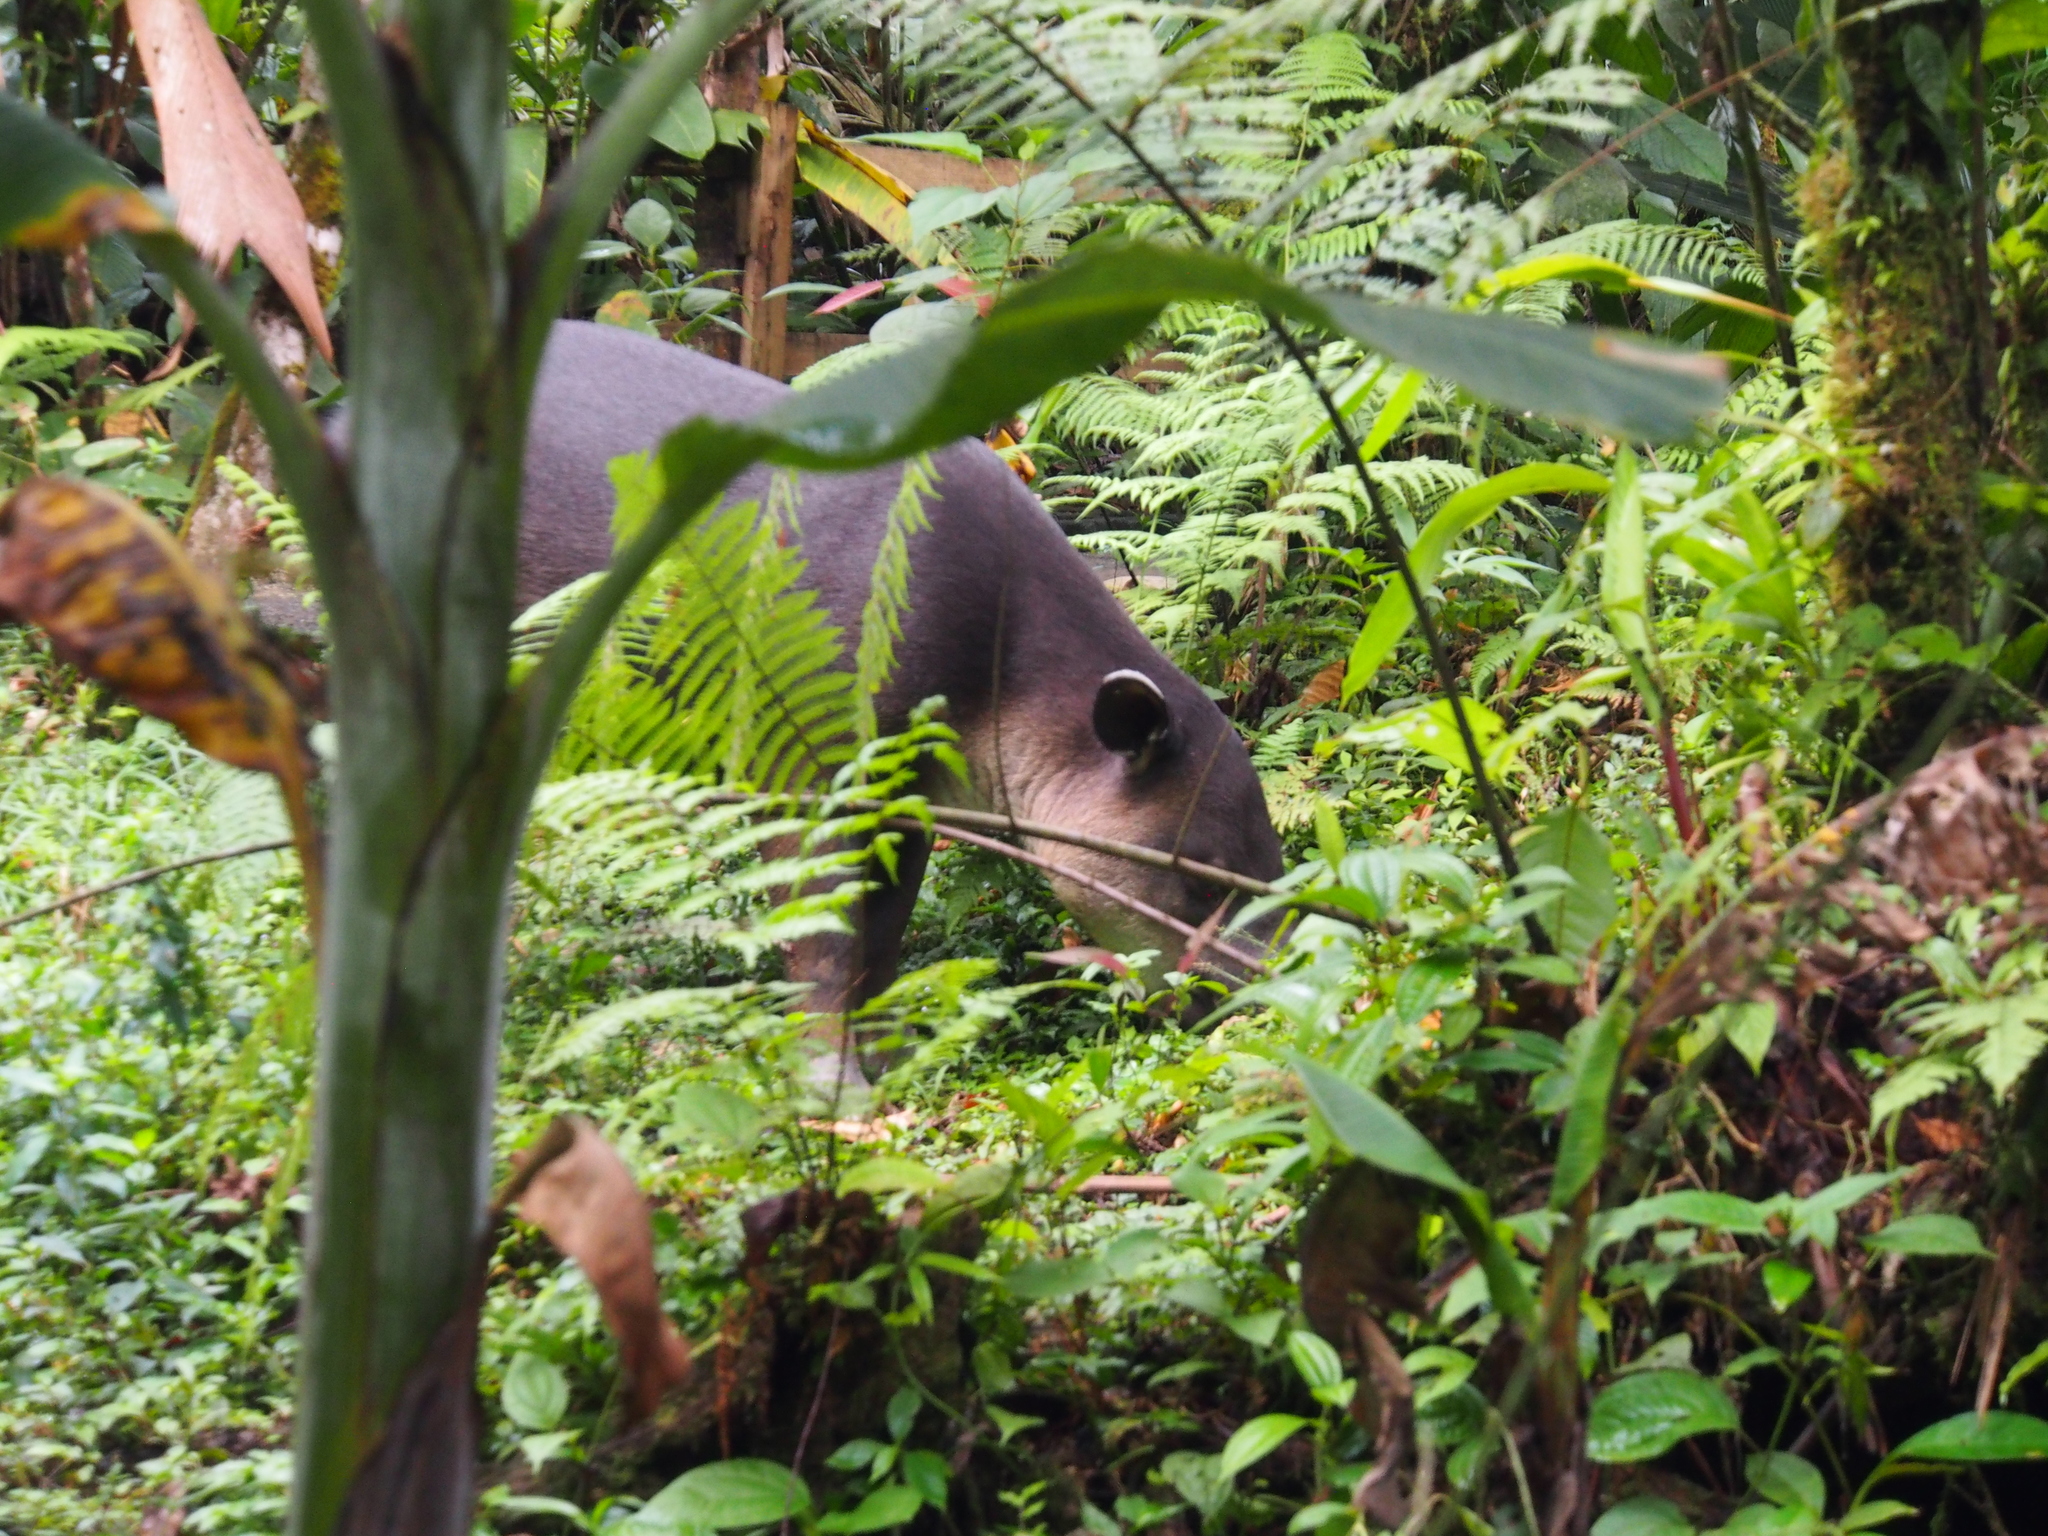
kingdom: Animalia
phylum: Chordata
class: Mammalia
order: Perissodactyla
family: Tapiridae
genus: Tapirella
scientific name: Tapirella bairdii
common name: Baird's tapir
